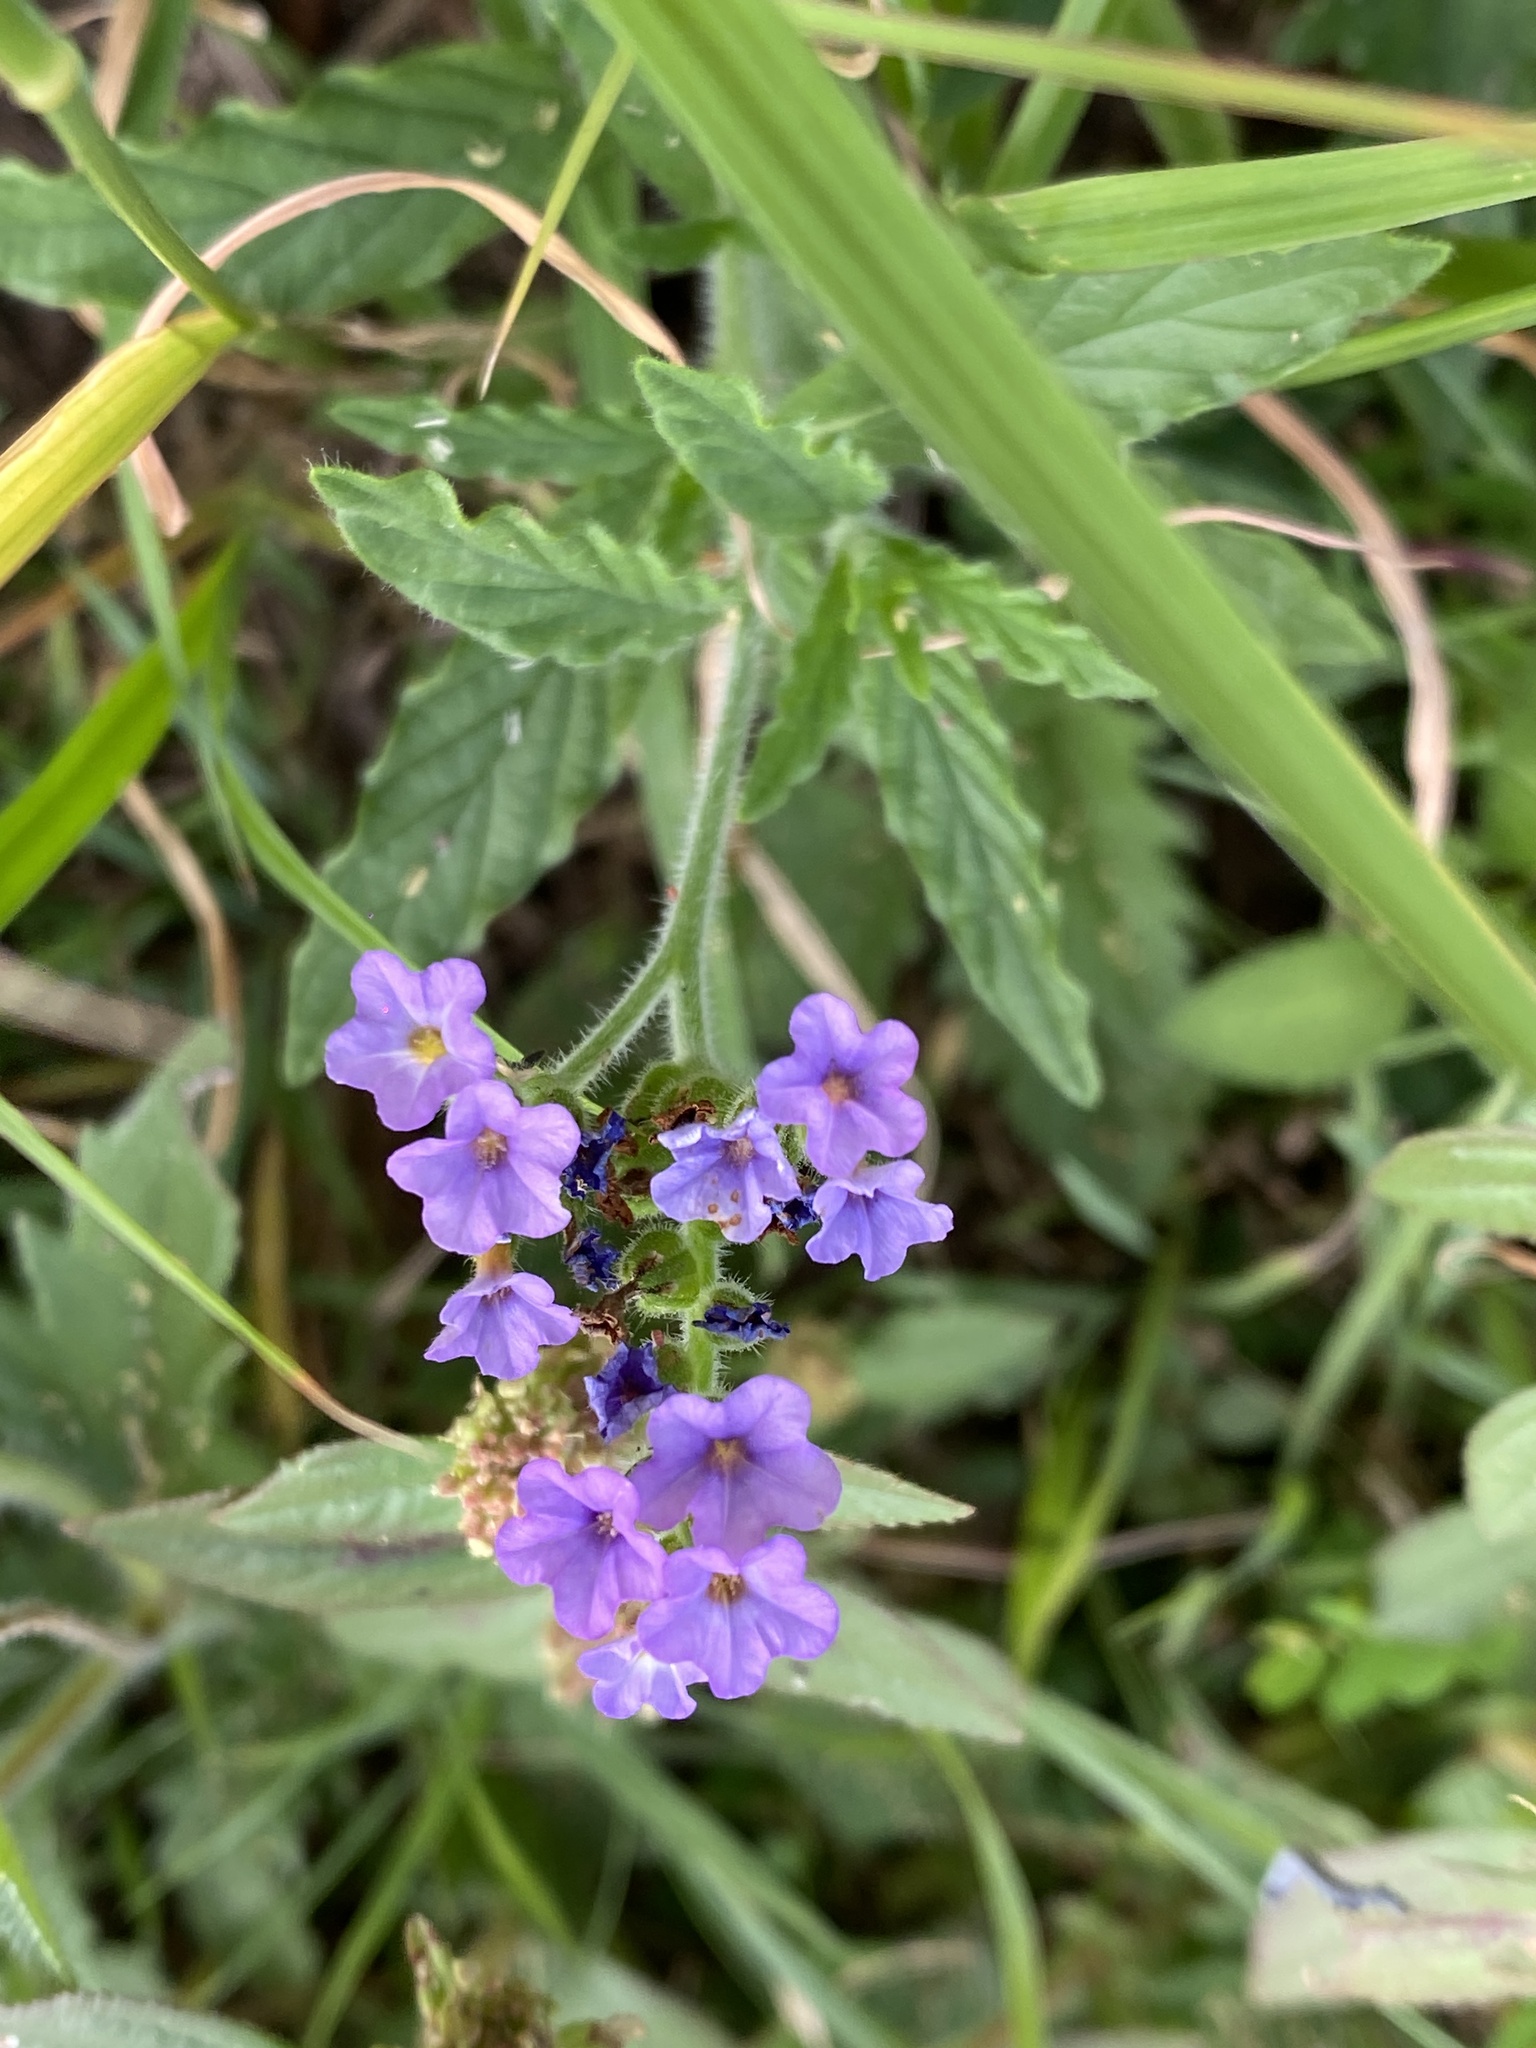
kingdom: Plantae
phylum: Tracheophyta
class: Magnoliopsida
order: Boraginales
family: Heliotropiaceae
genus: Heliotropium
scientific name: Heliotropium amplexicaule
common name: Clasping heliotrope
